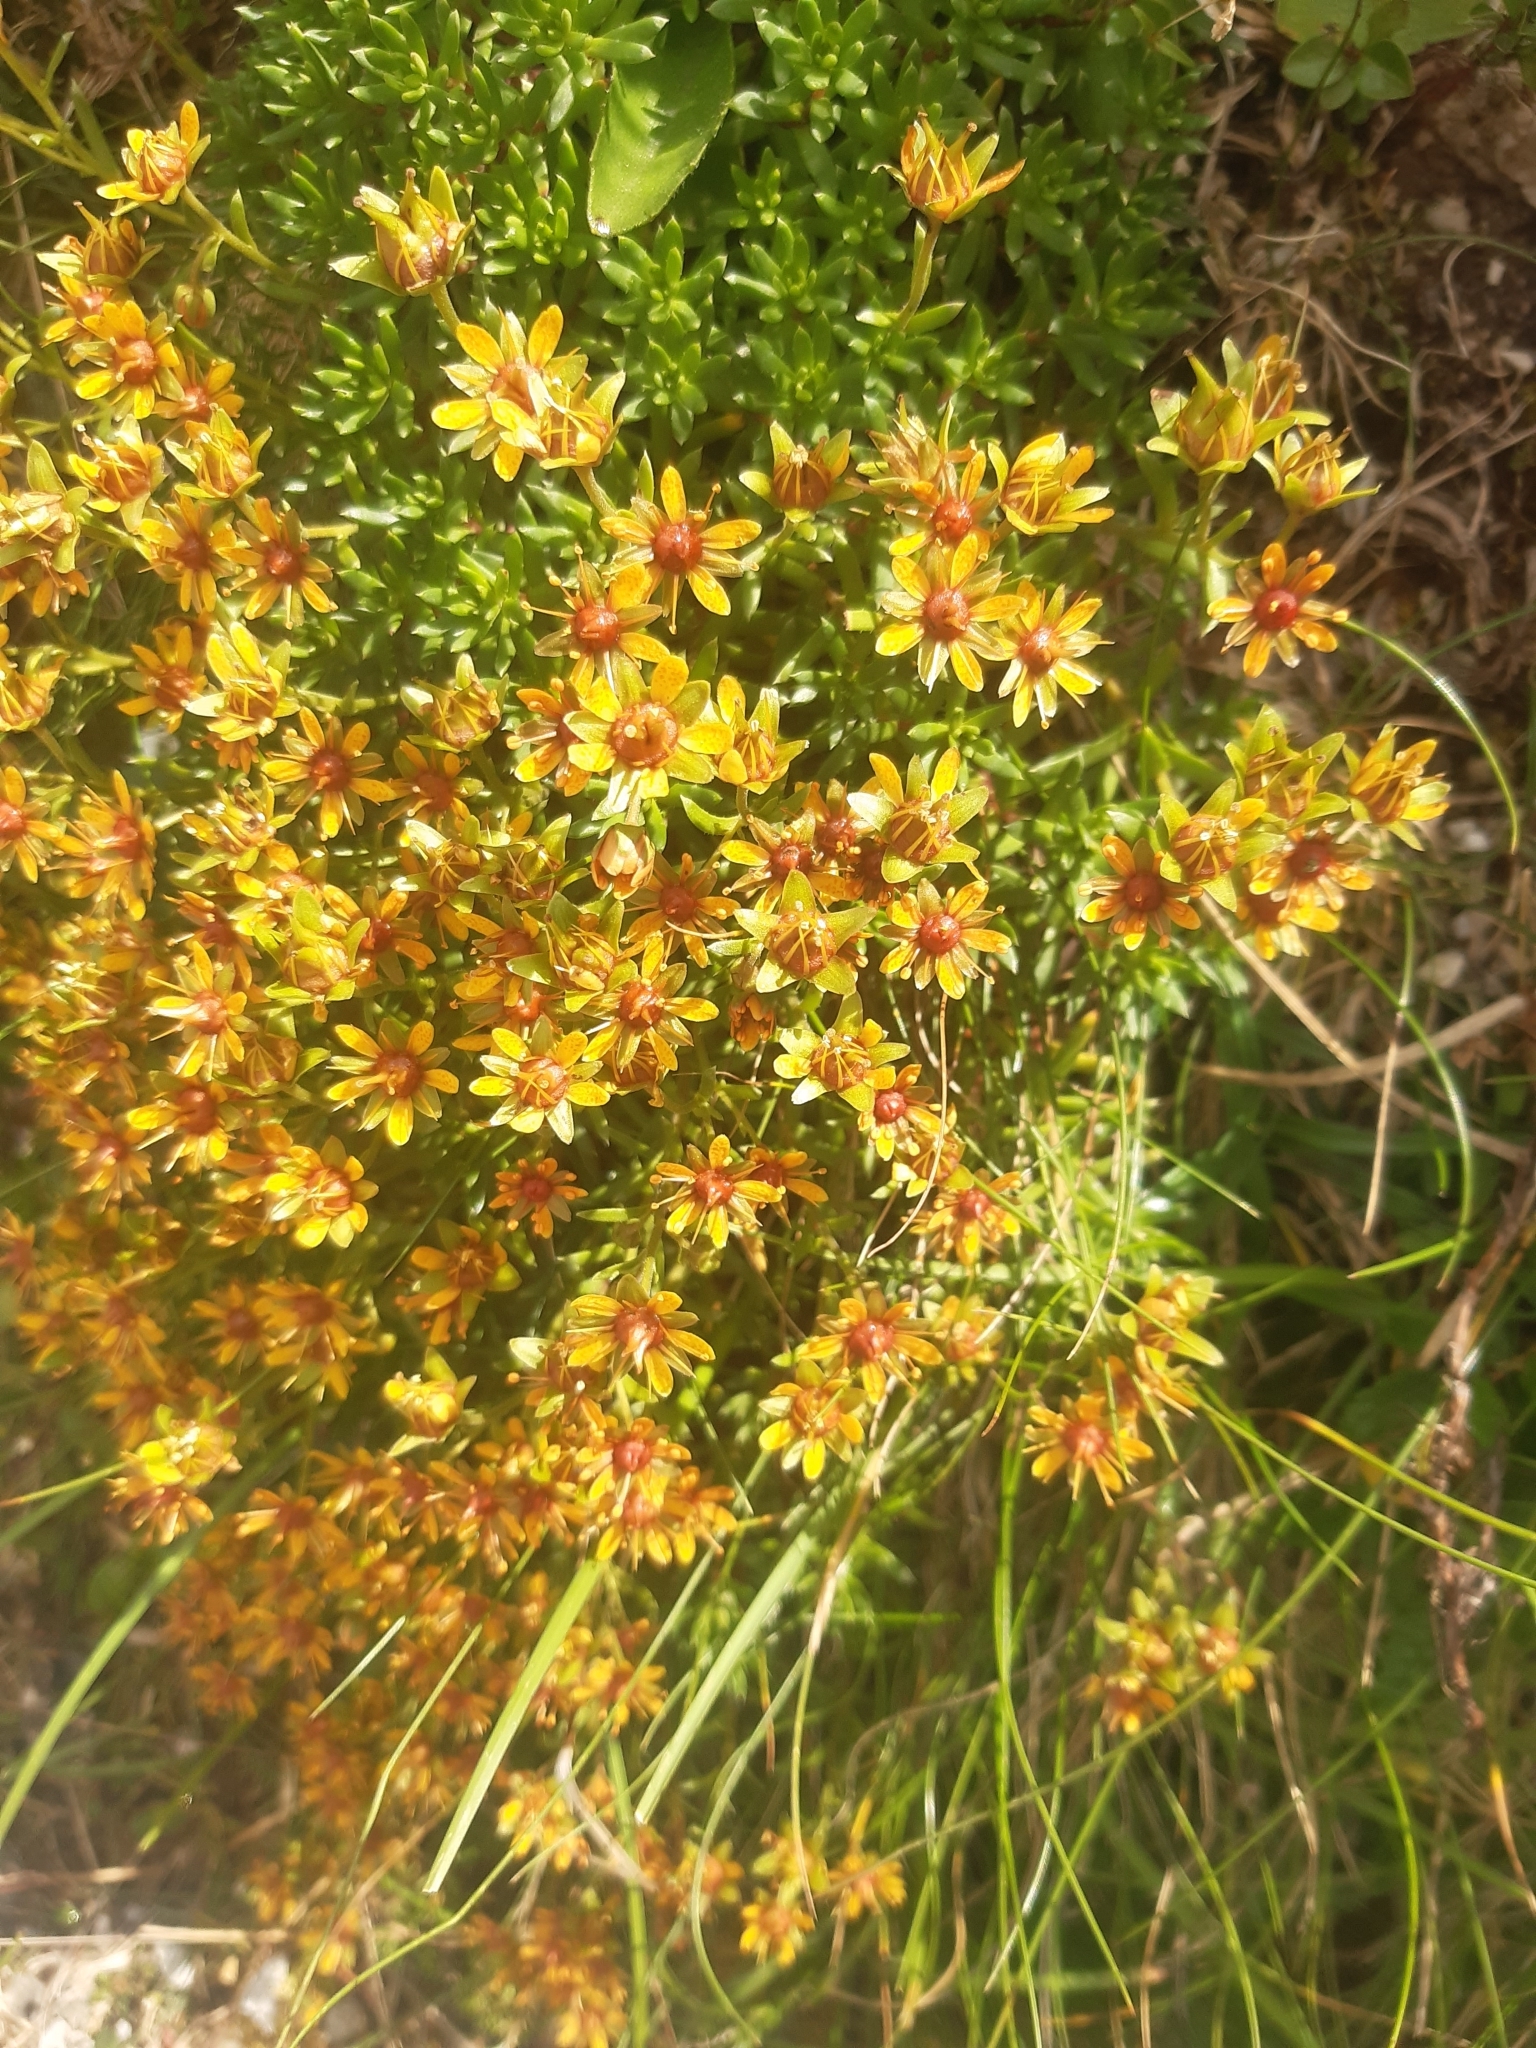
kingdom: Plantae
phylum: Tracheophyta
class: Magnoliopsida
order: Saxifragales
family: Saxifragaceae
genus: Saxifraga
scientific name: Saxifraga aizoides
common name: Yellow mountain saxifrage
